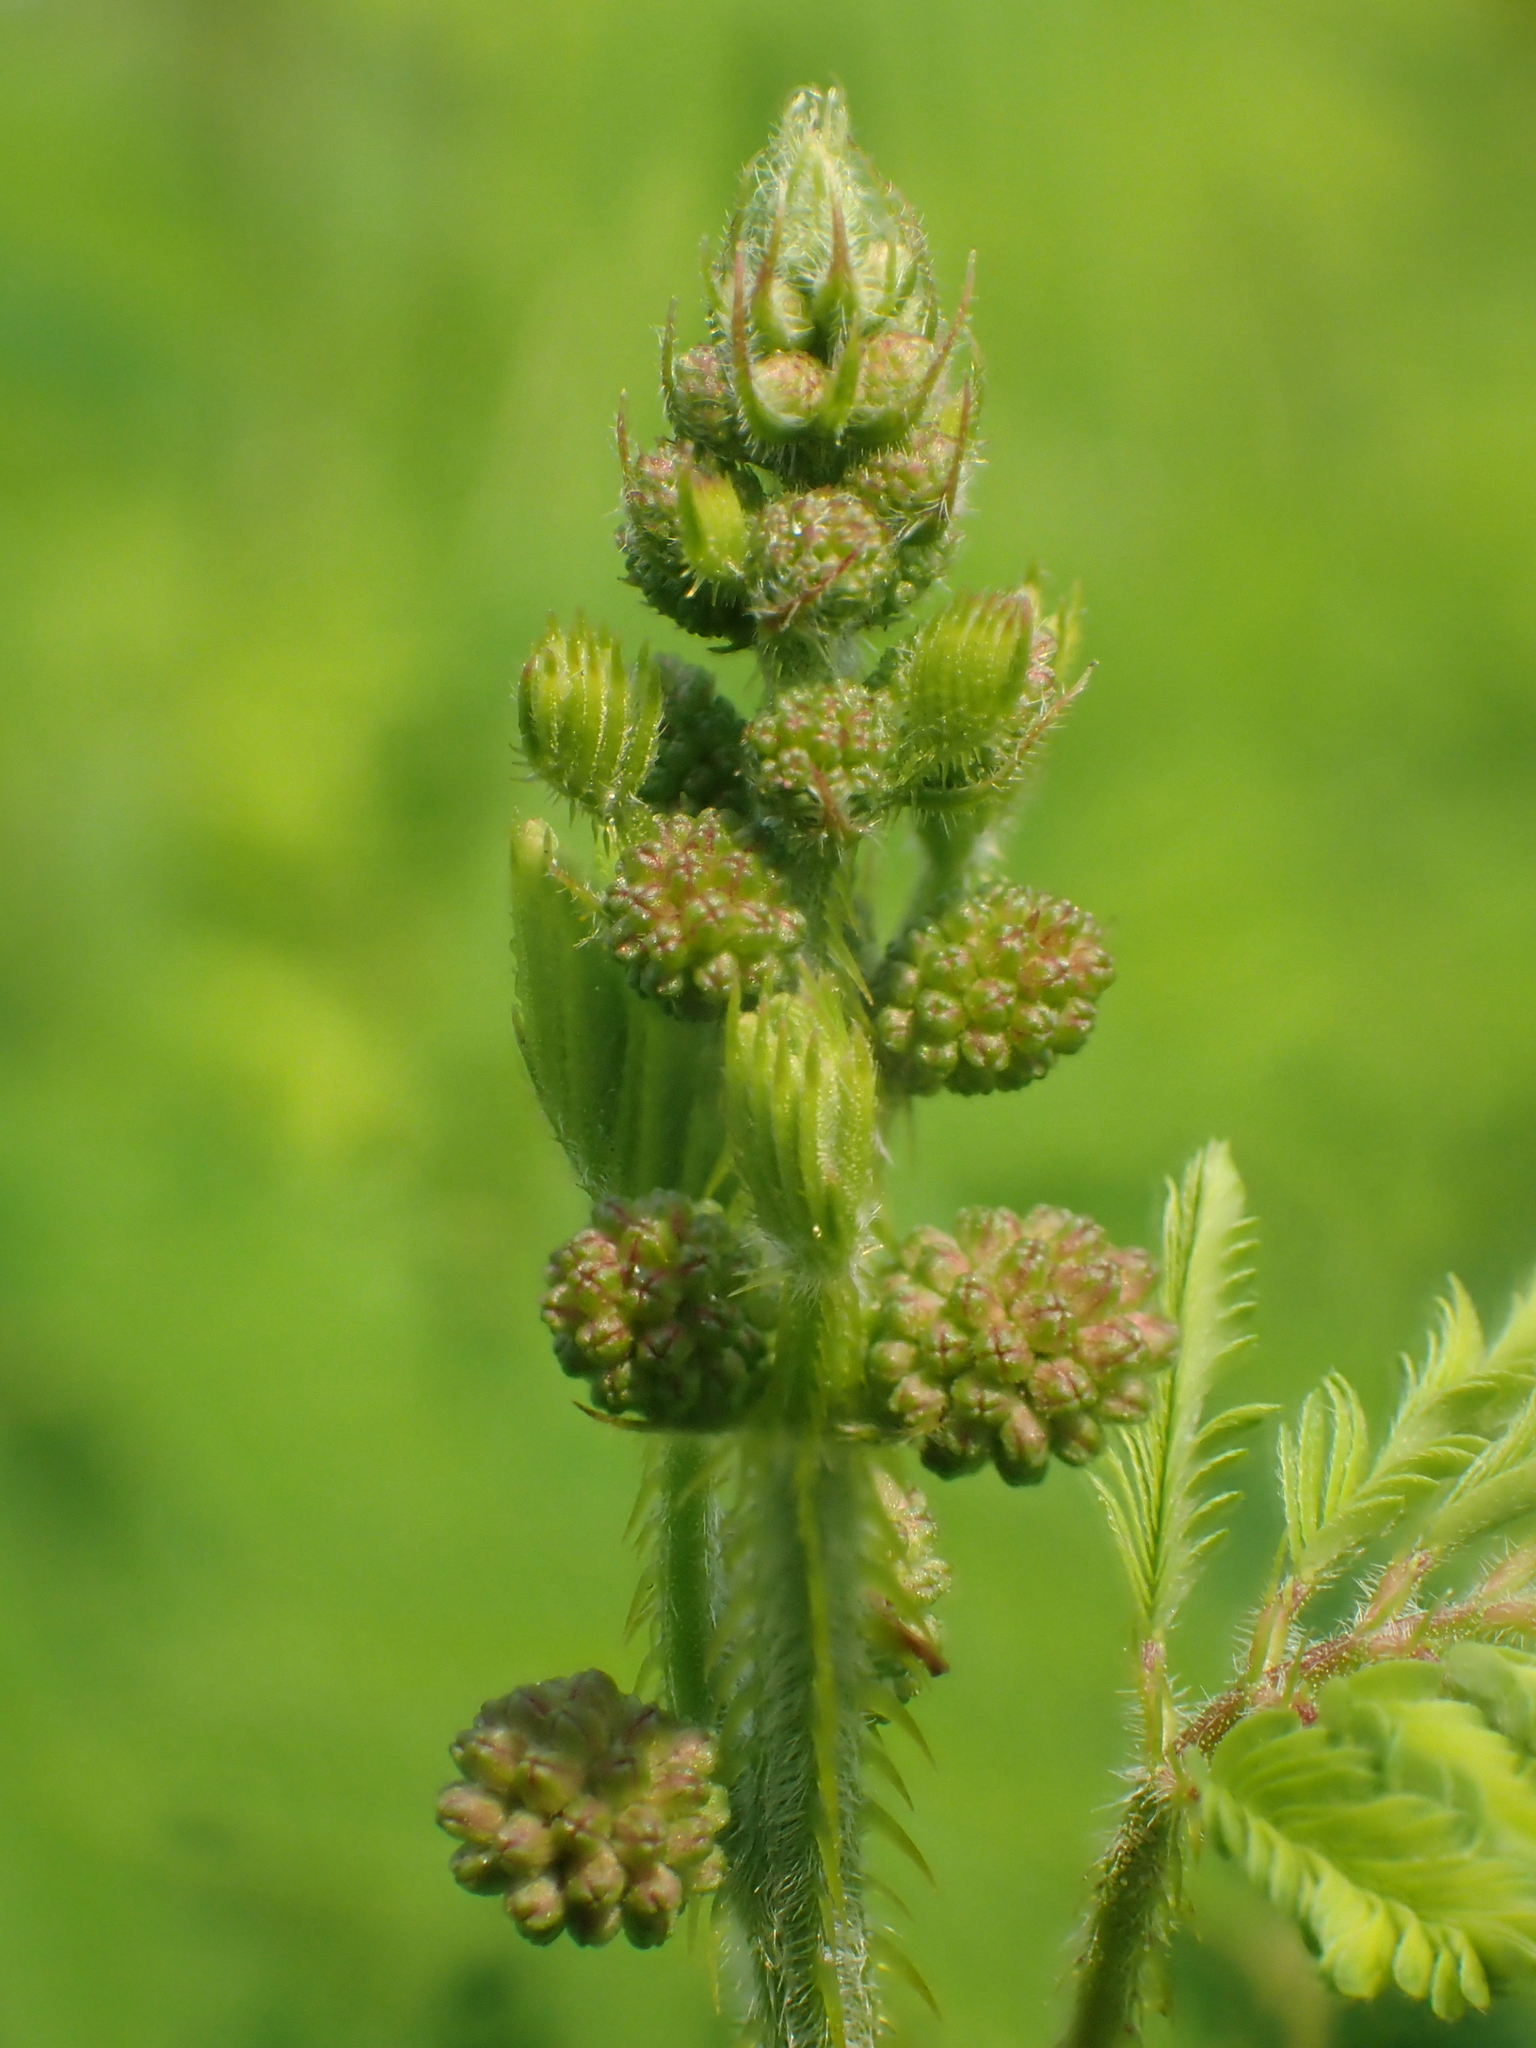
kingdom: Plantae
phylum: Tracheophyta
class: Magnoliopsida
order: Fabales
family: Fabaceae
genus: Mimosa
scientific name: Mimosa diplotricha
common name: Giant sensitive-plant
